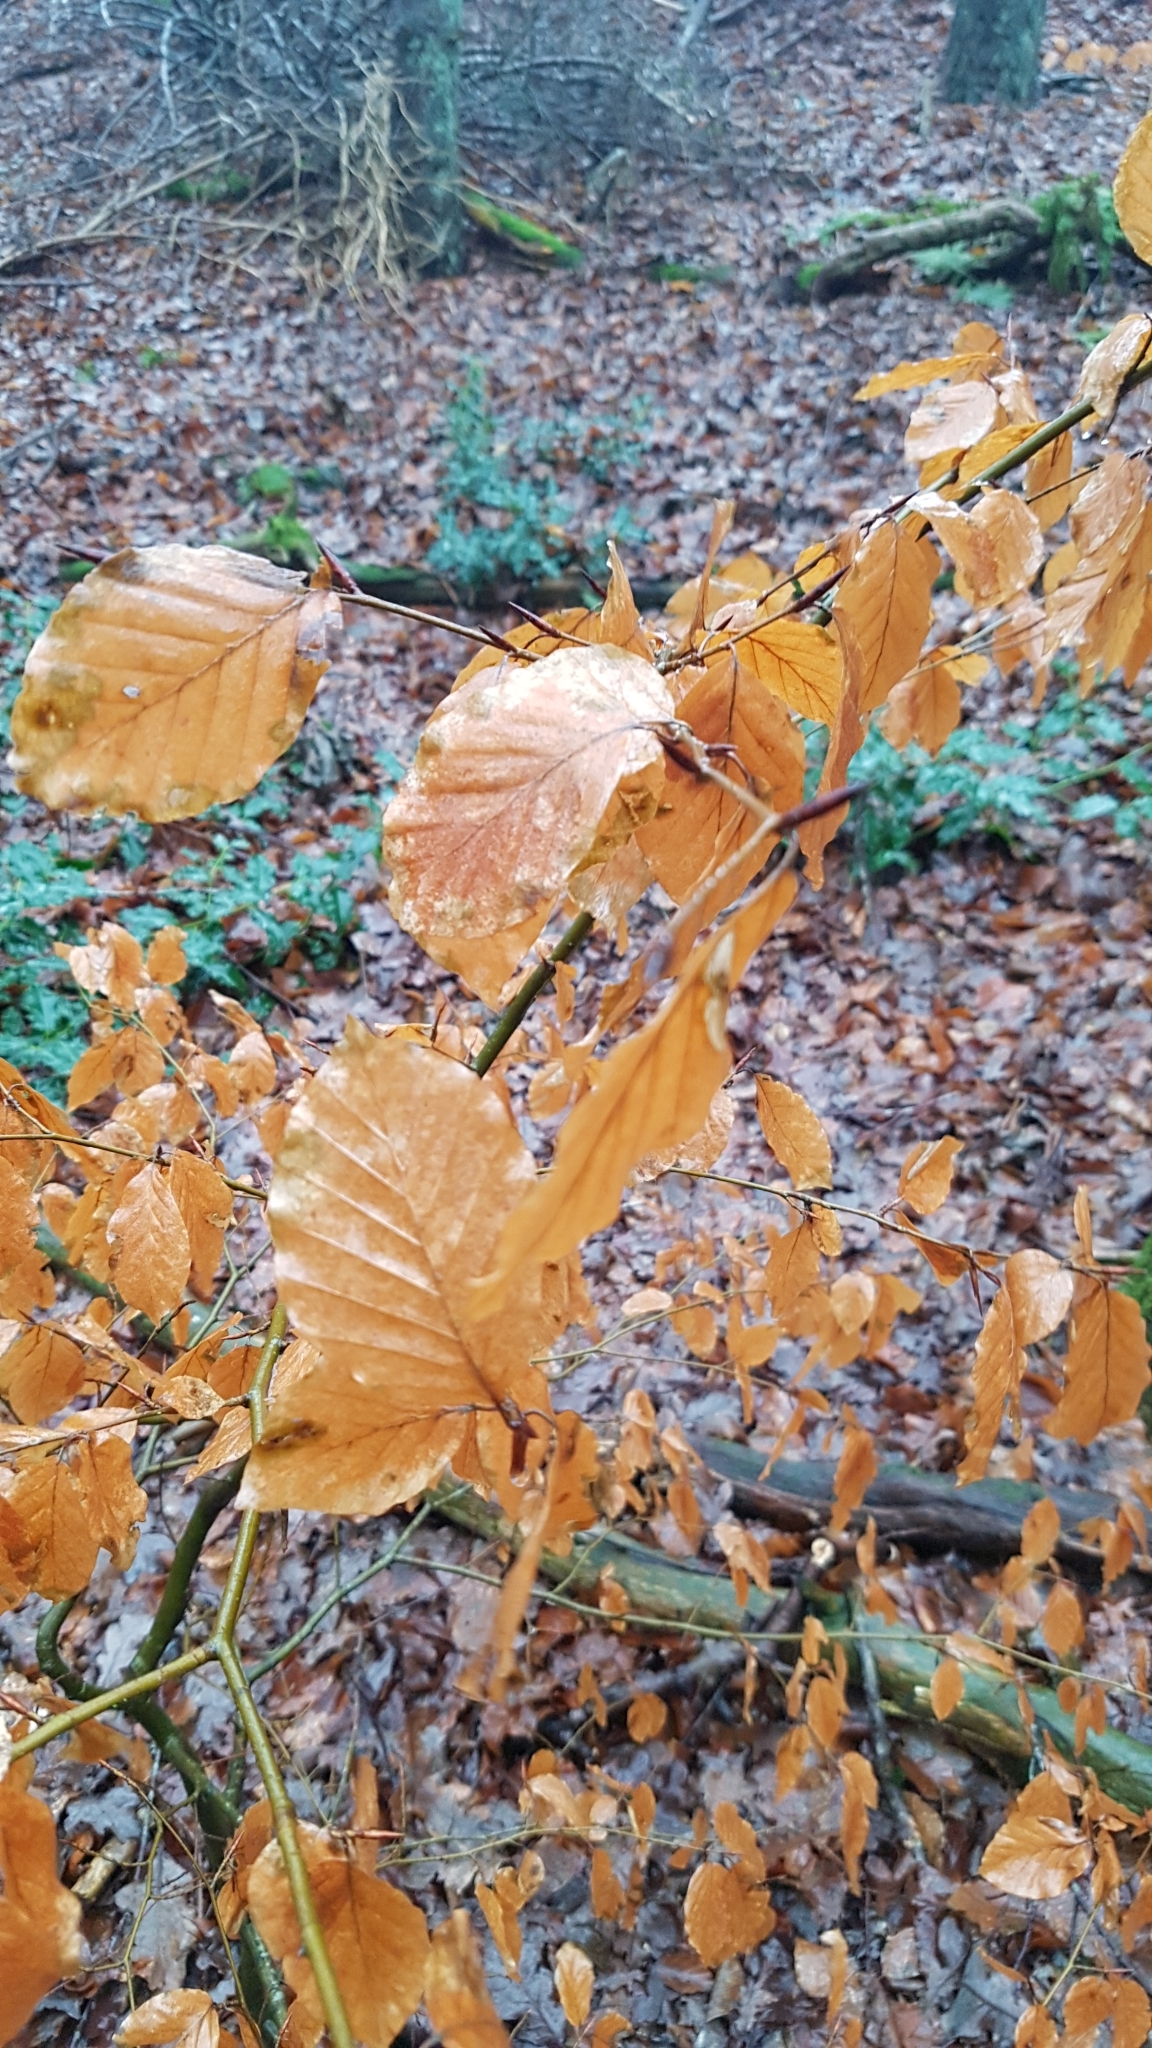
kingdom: Plantae
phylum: Tracheophyta
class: Magnoliopsida
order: Fagales
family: Fagaceae
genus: Fagus
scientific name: Fagus sylvatica
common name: Beech
